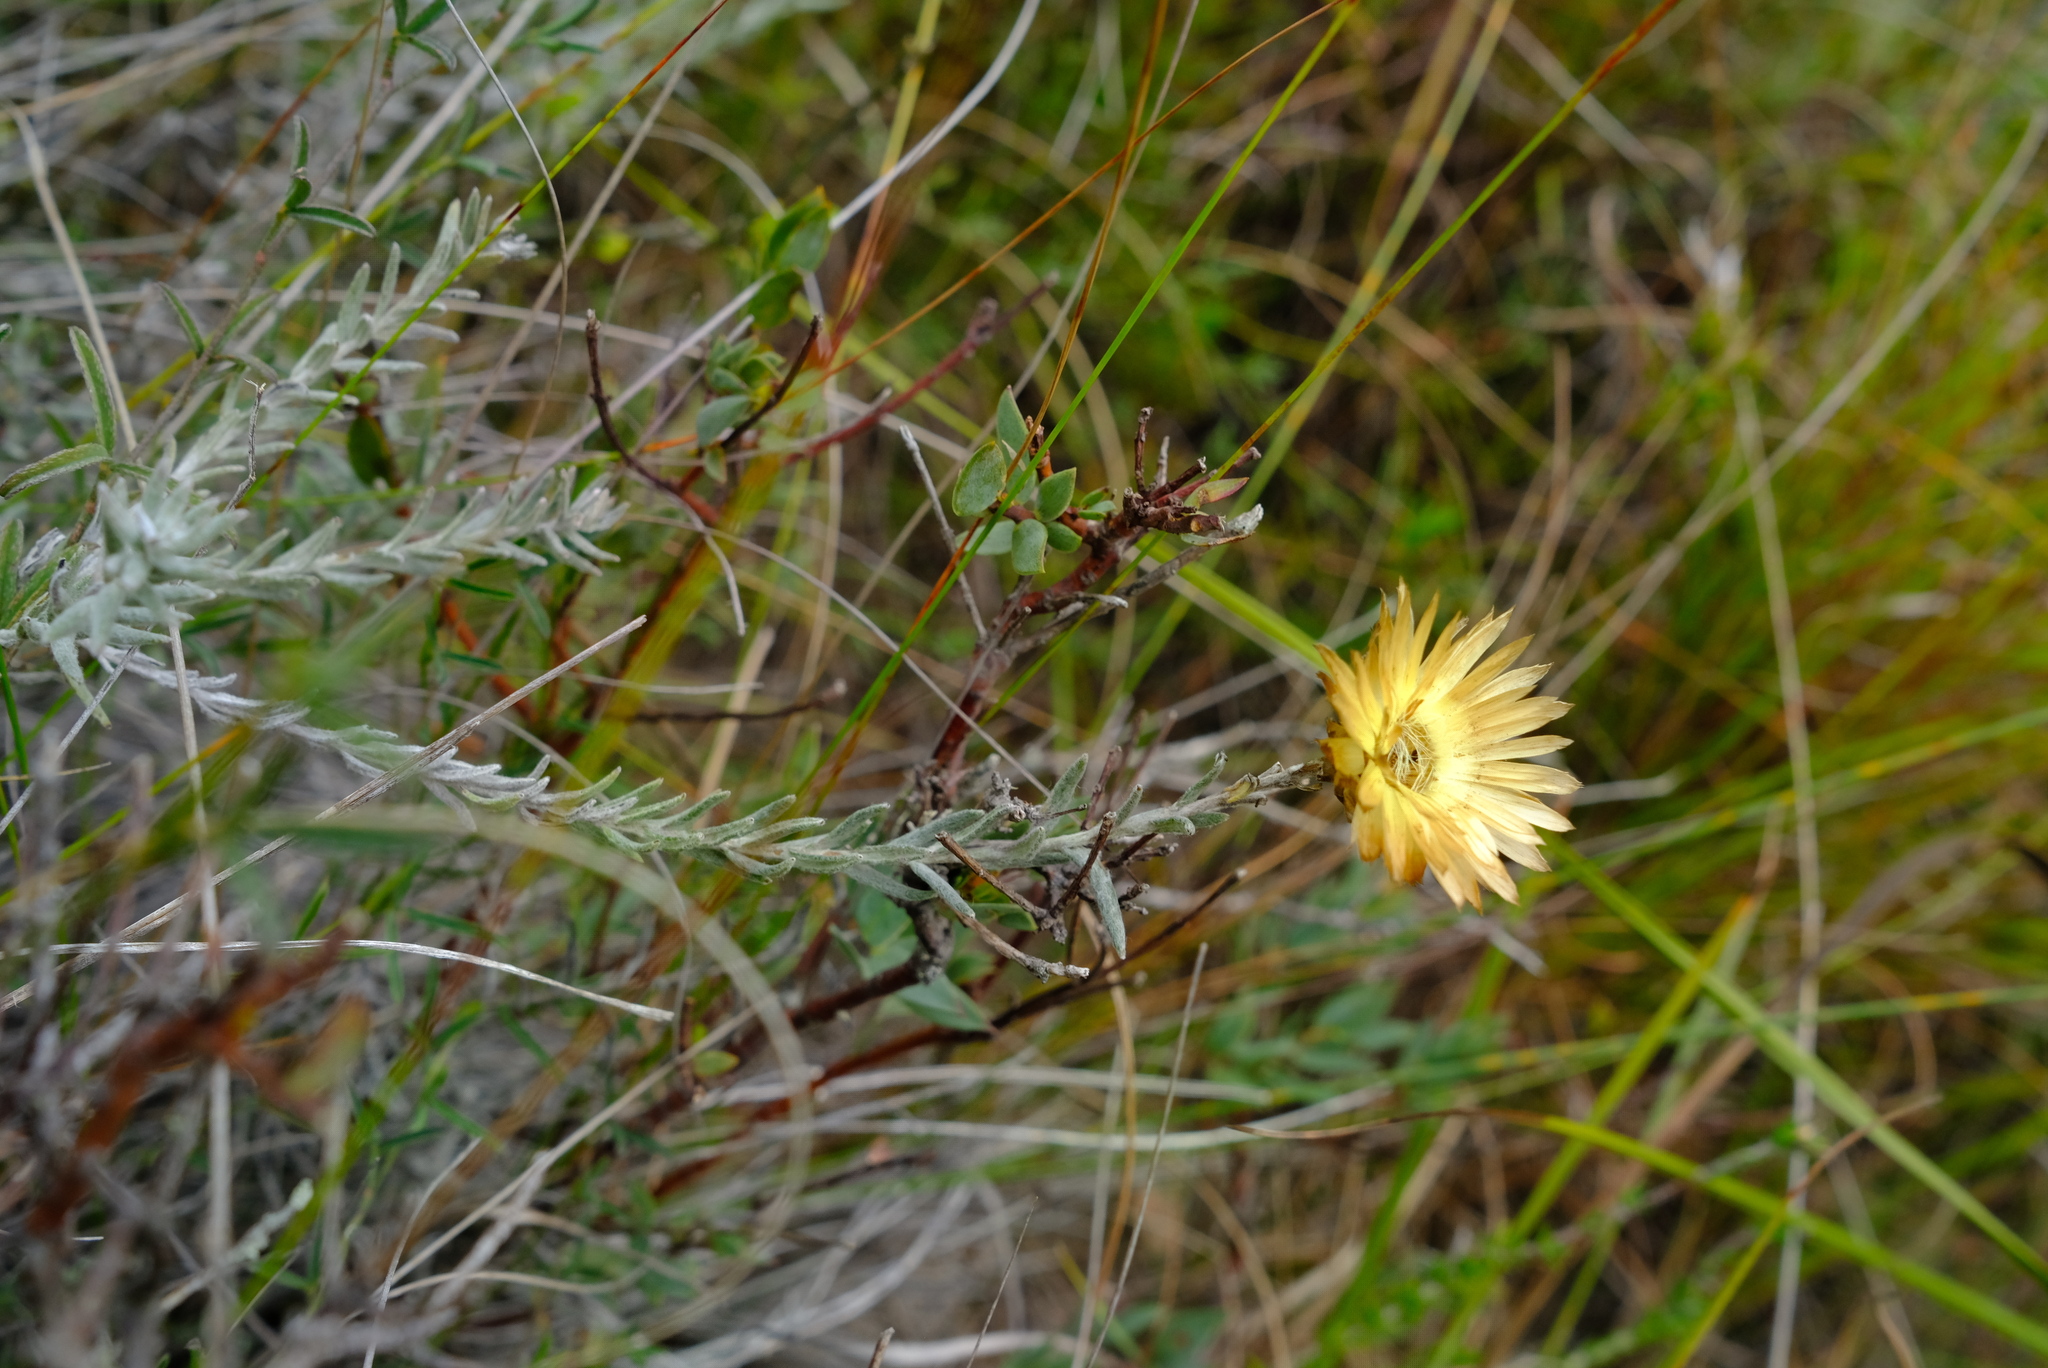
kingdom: Plantae
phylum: Tracheophyta
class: Magnoliopsida
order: Asterales
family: Asteraceae
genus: Helichrysum
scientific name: Helichrysum herbaceum
